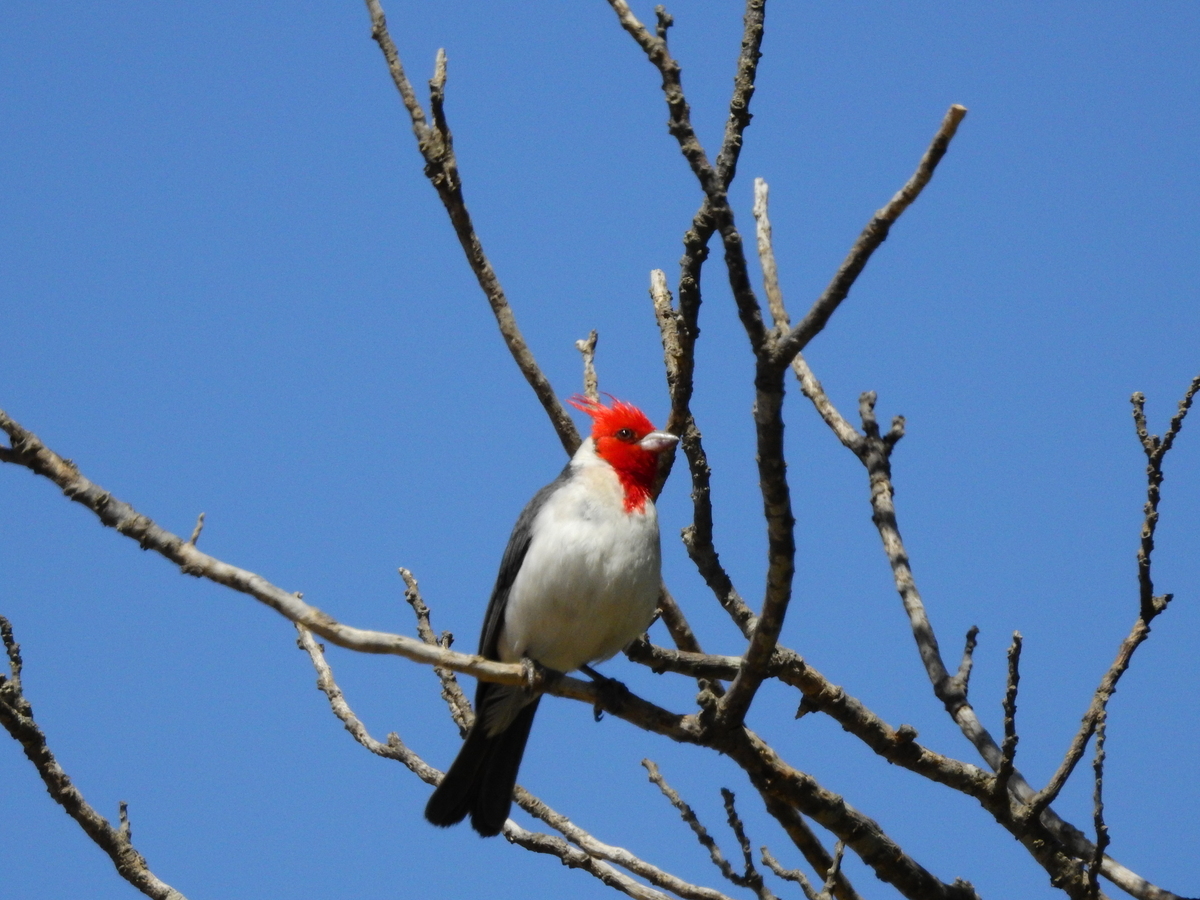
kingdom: Animalia
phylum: Chordata
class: Aves
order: Passeriformes
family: Thraupidae
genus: Paroaria
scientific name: Paroaria coronata
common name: Red-crested cardinal
